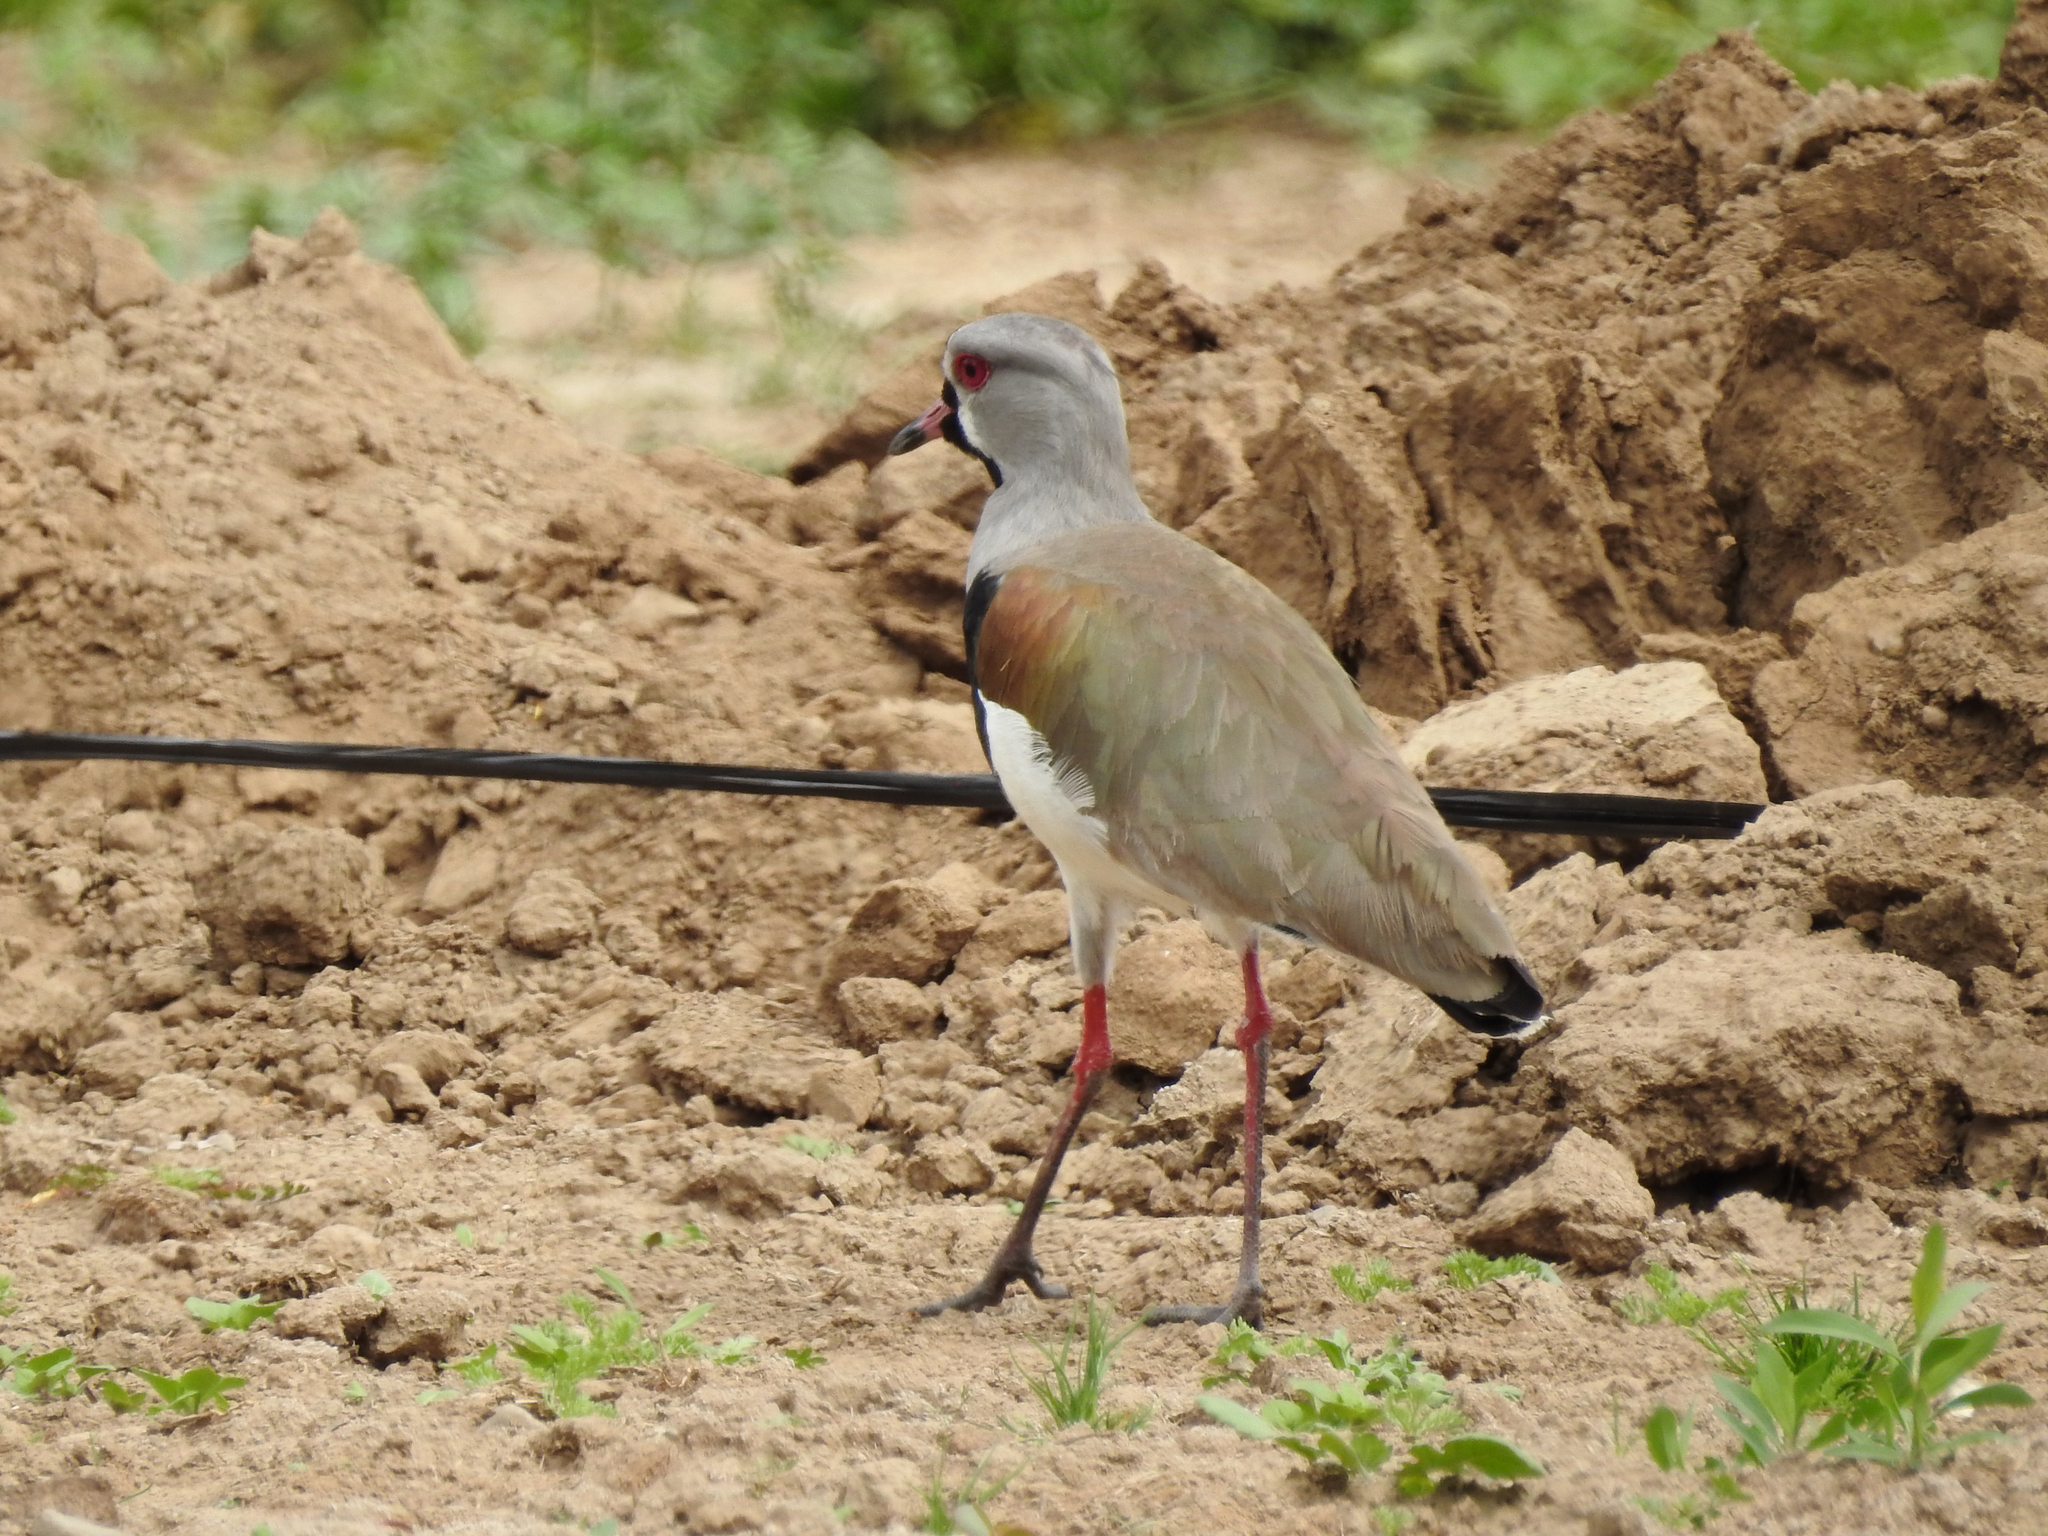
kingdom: Animalia
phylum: Chordata
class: Aves
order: Charadriiformes
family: Charadriidae
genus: Vanellus
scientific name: Vanellus chilensis
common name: Southern lapwing
